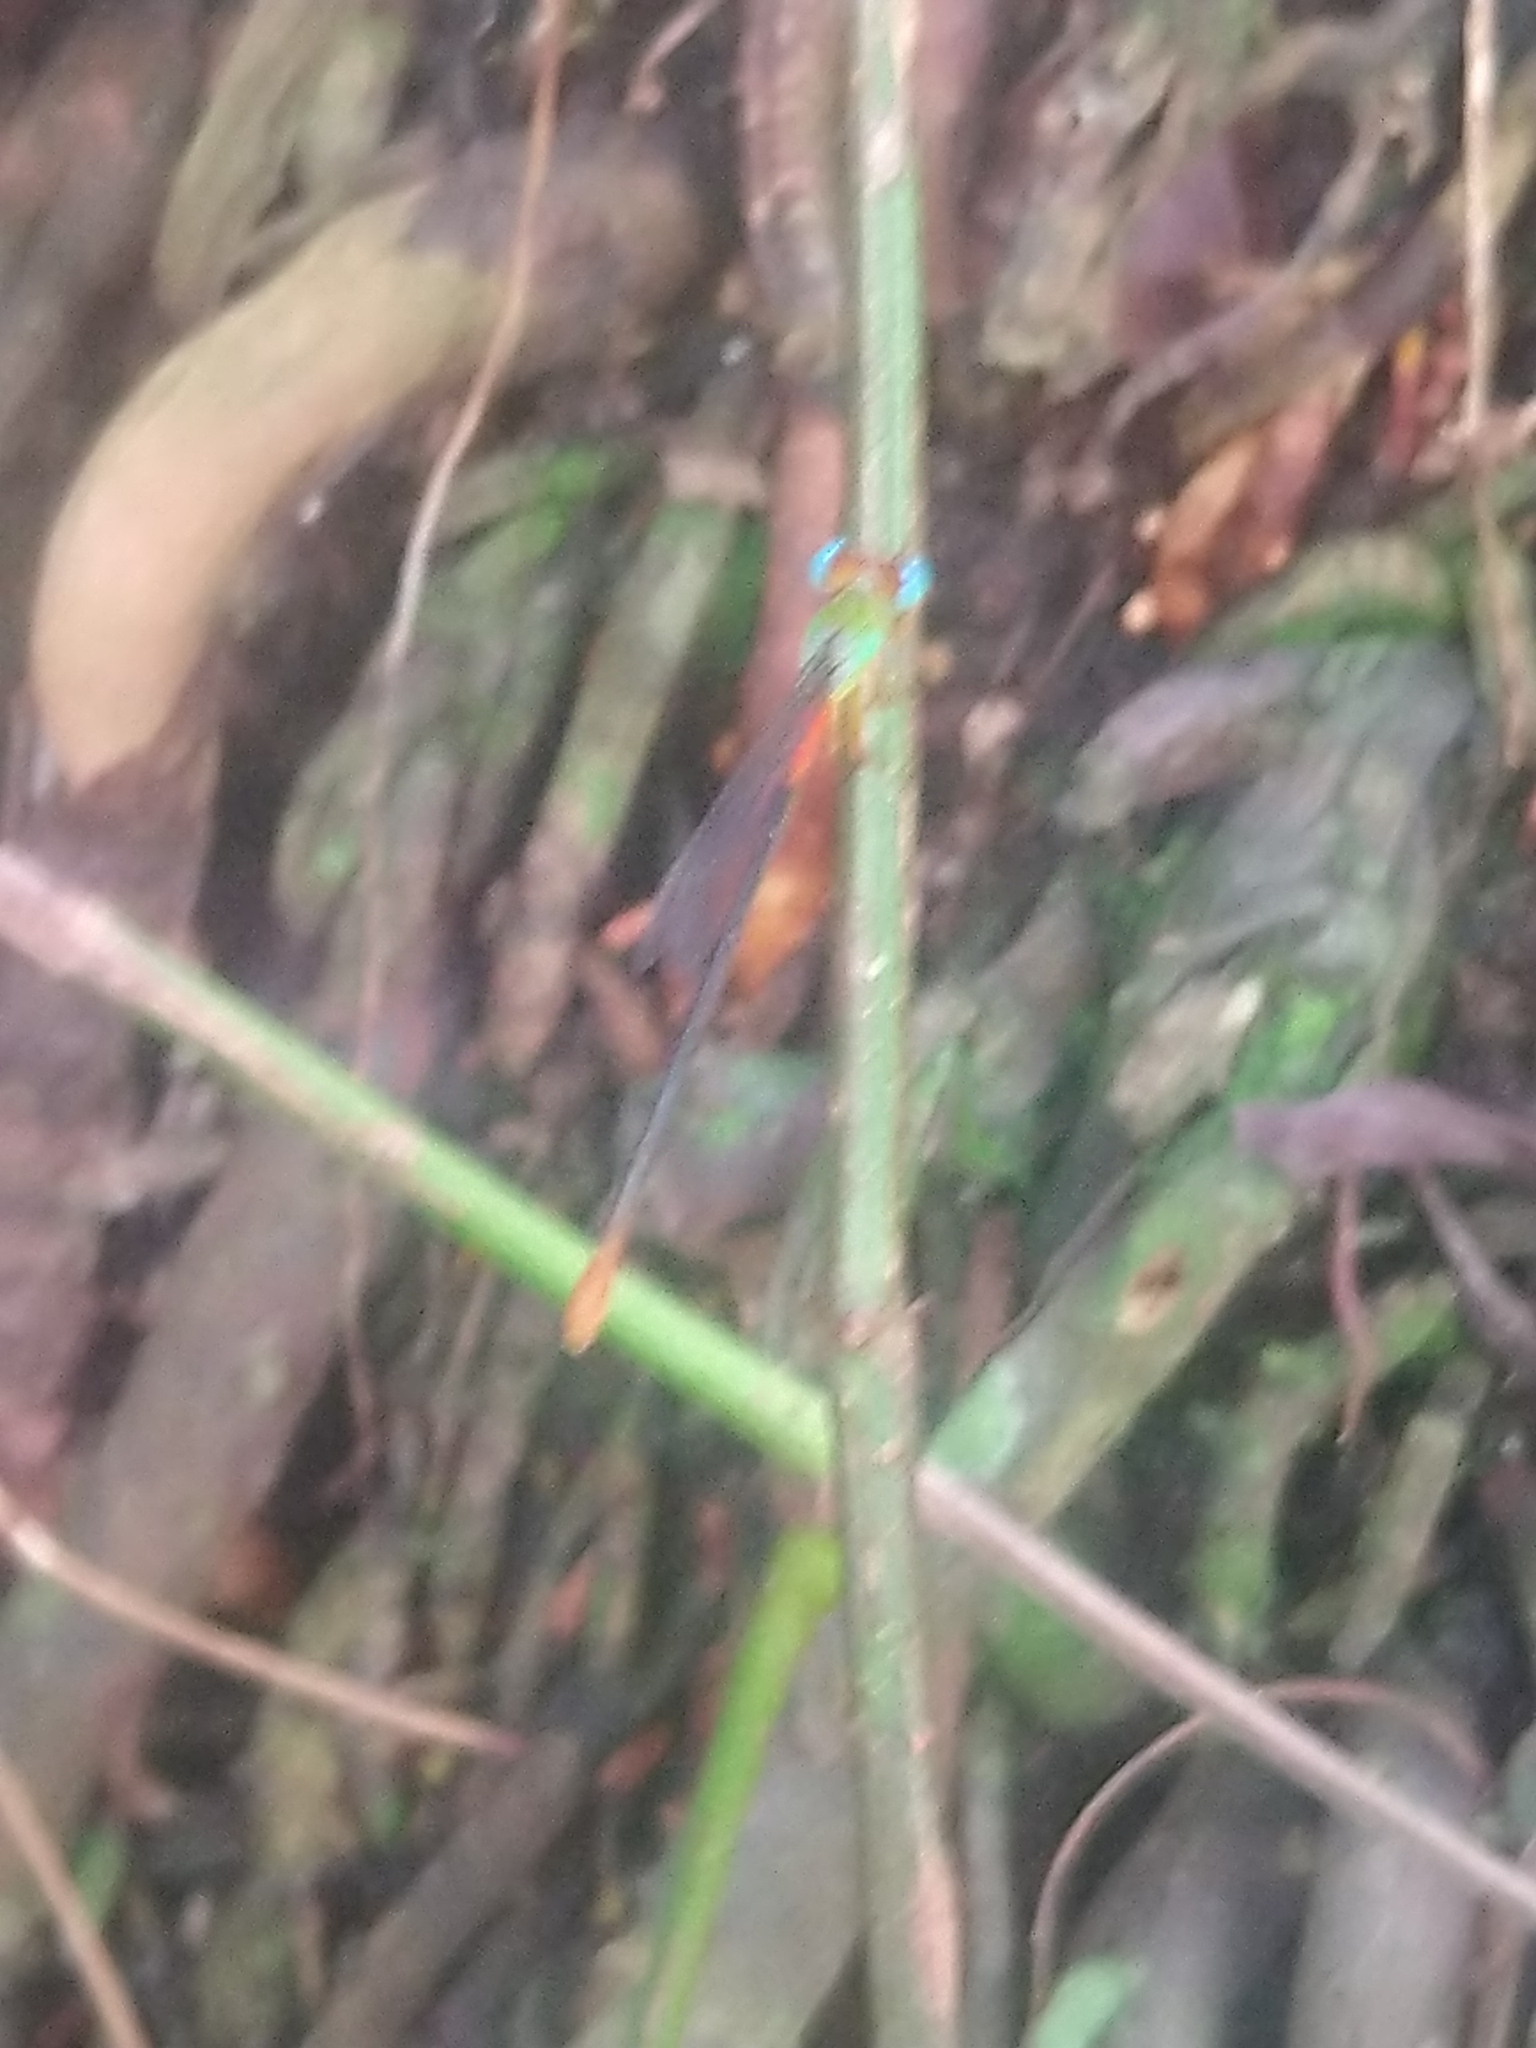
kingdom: Animalia
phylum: Arthropoda
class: Insecta
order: Odonata
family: Coenagrionidae
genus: Ceriagrion
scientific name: Ceriagrion cerinorubellum
